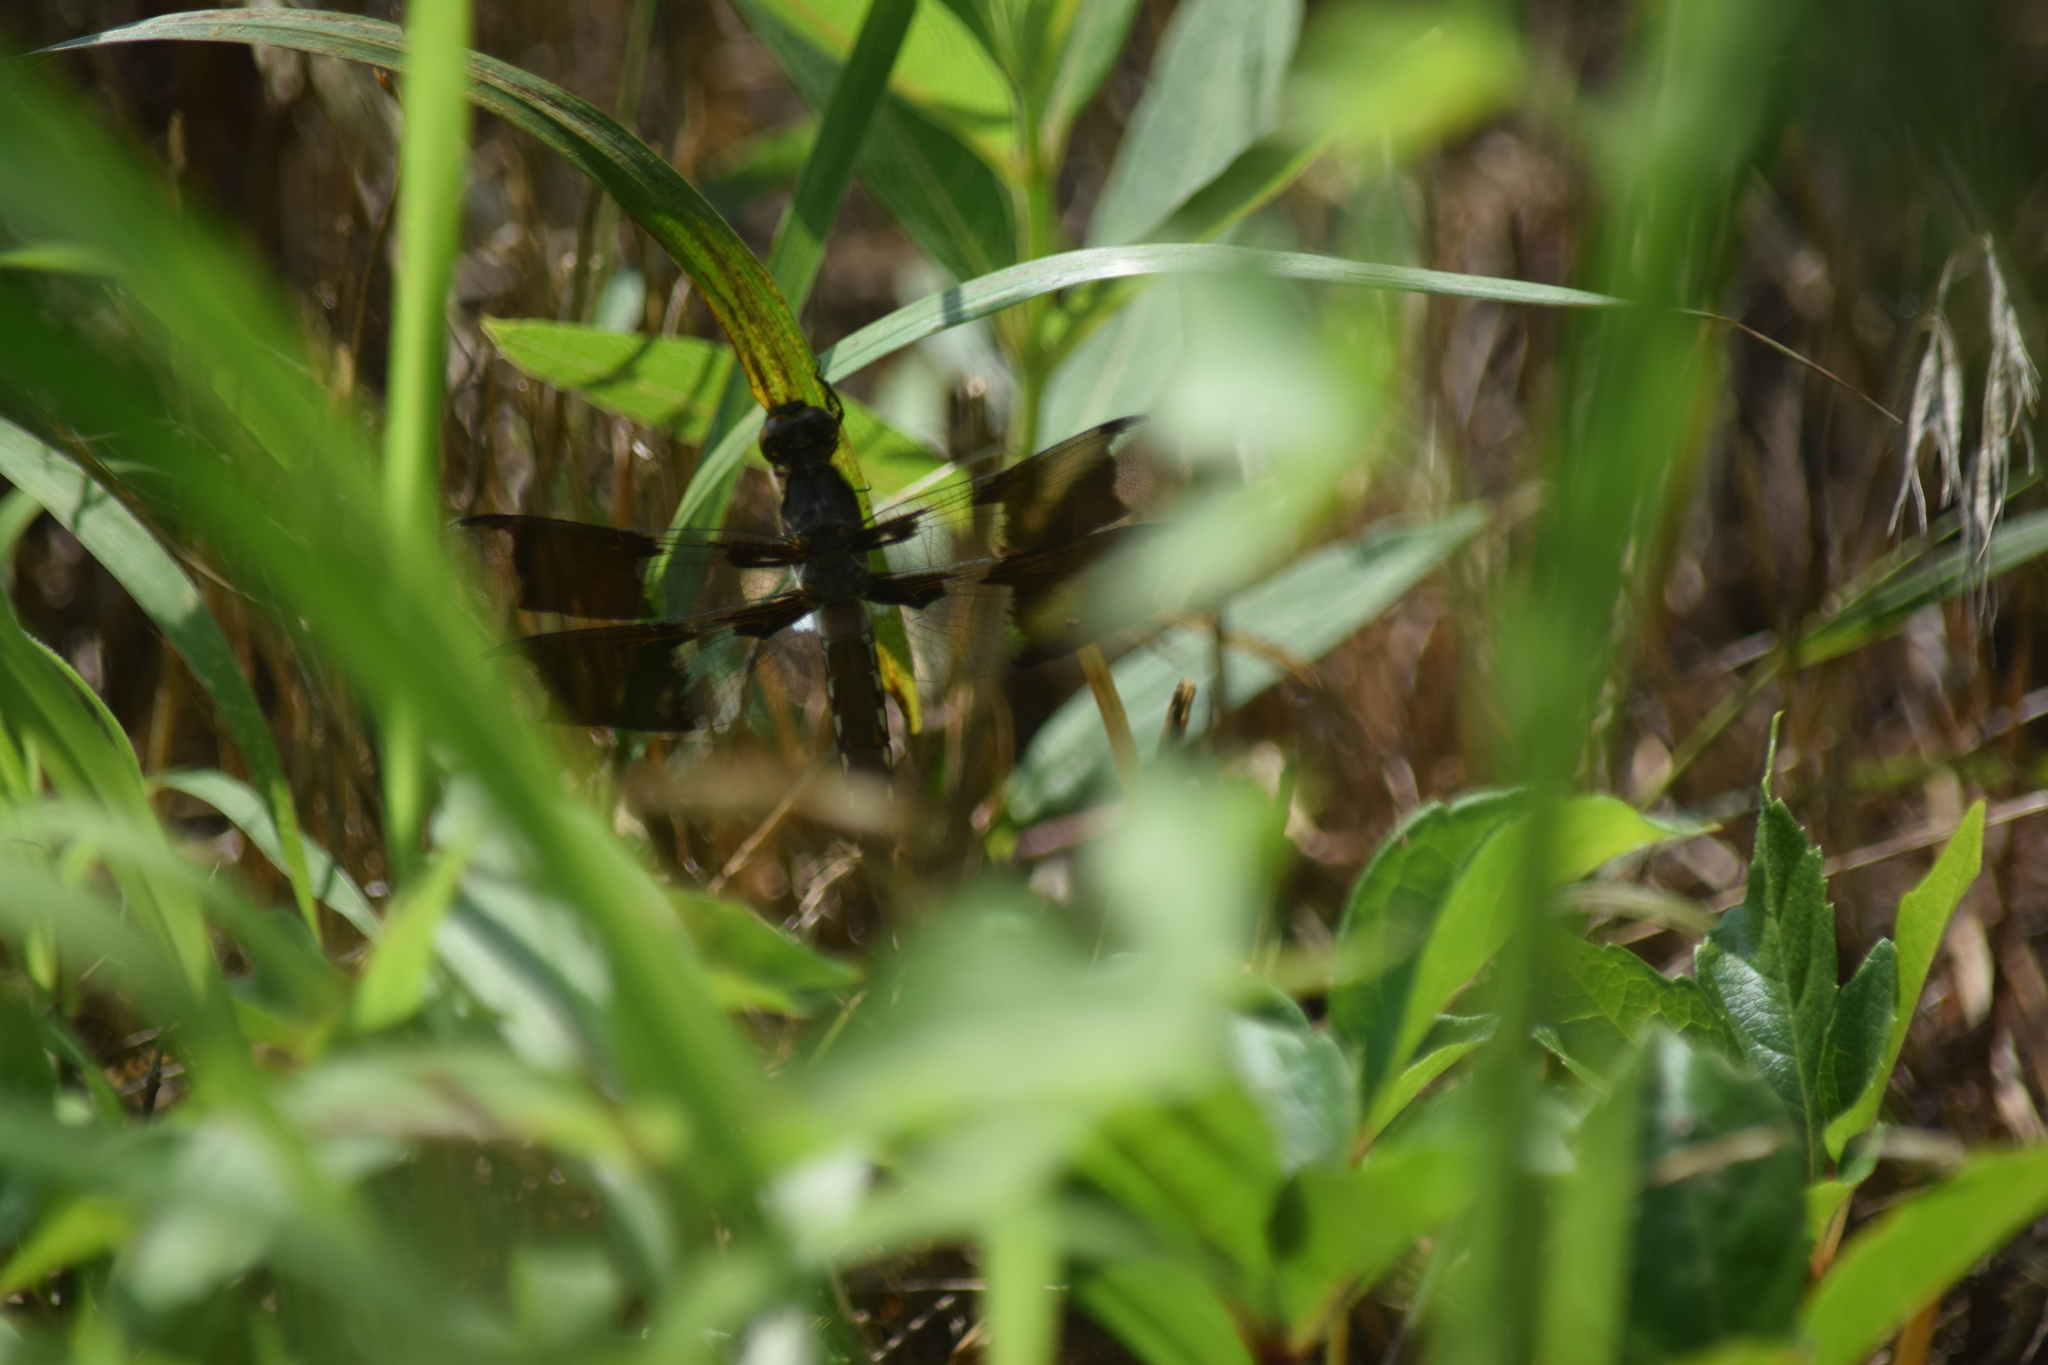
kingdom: Animalia
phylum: Arthropoda
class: Insecta
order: Odonata
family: Libellulidae
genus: Plathemis
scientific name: Plathemis lydia
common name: Common whitetail
